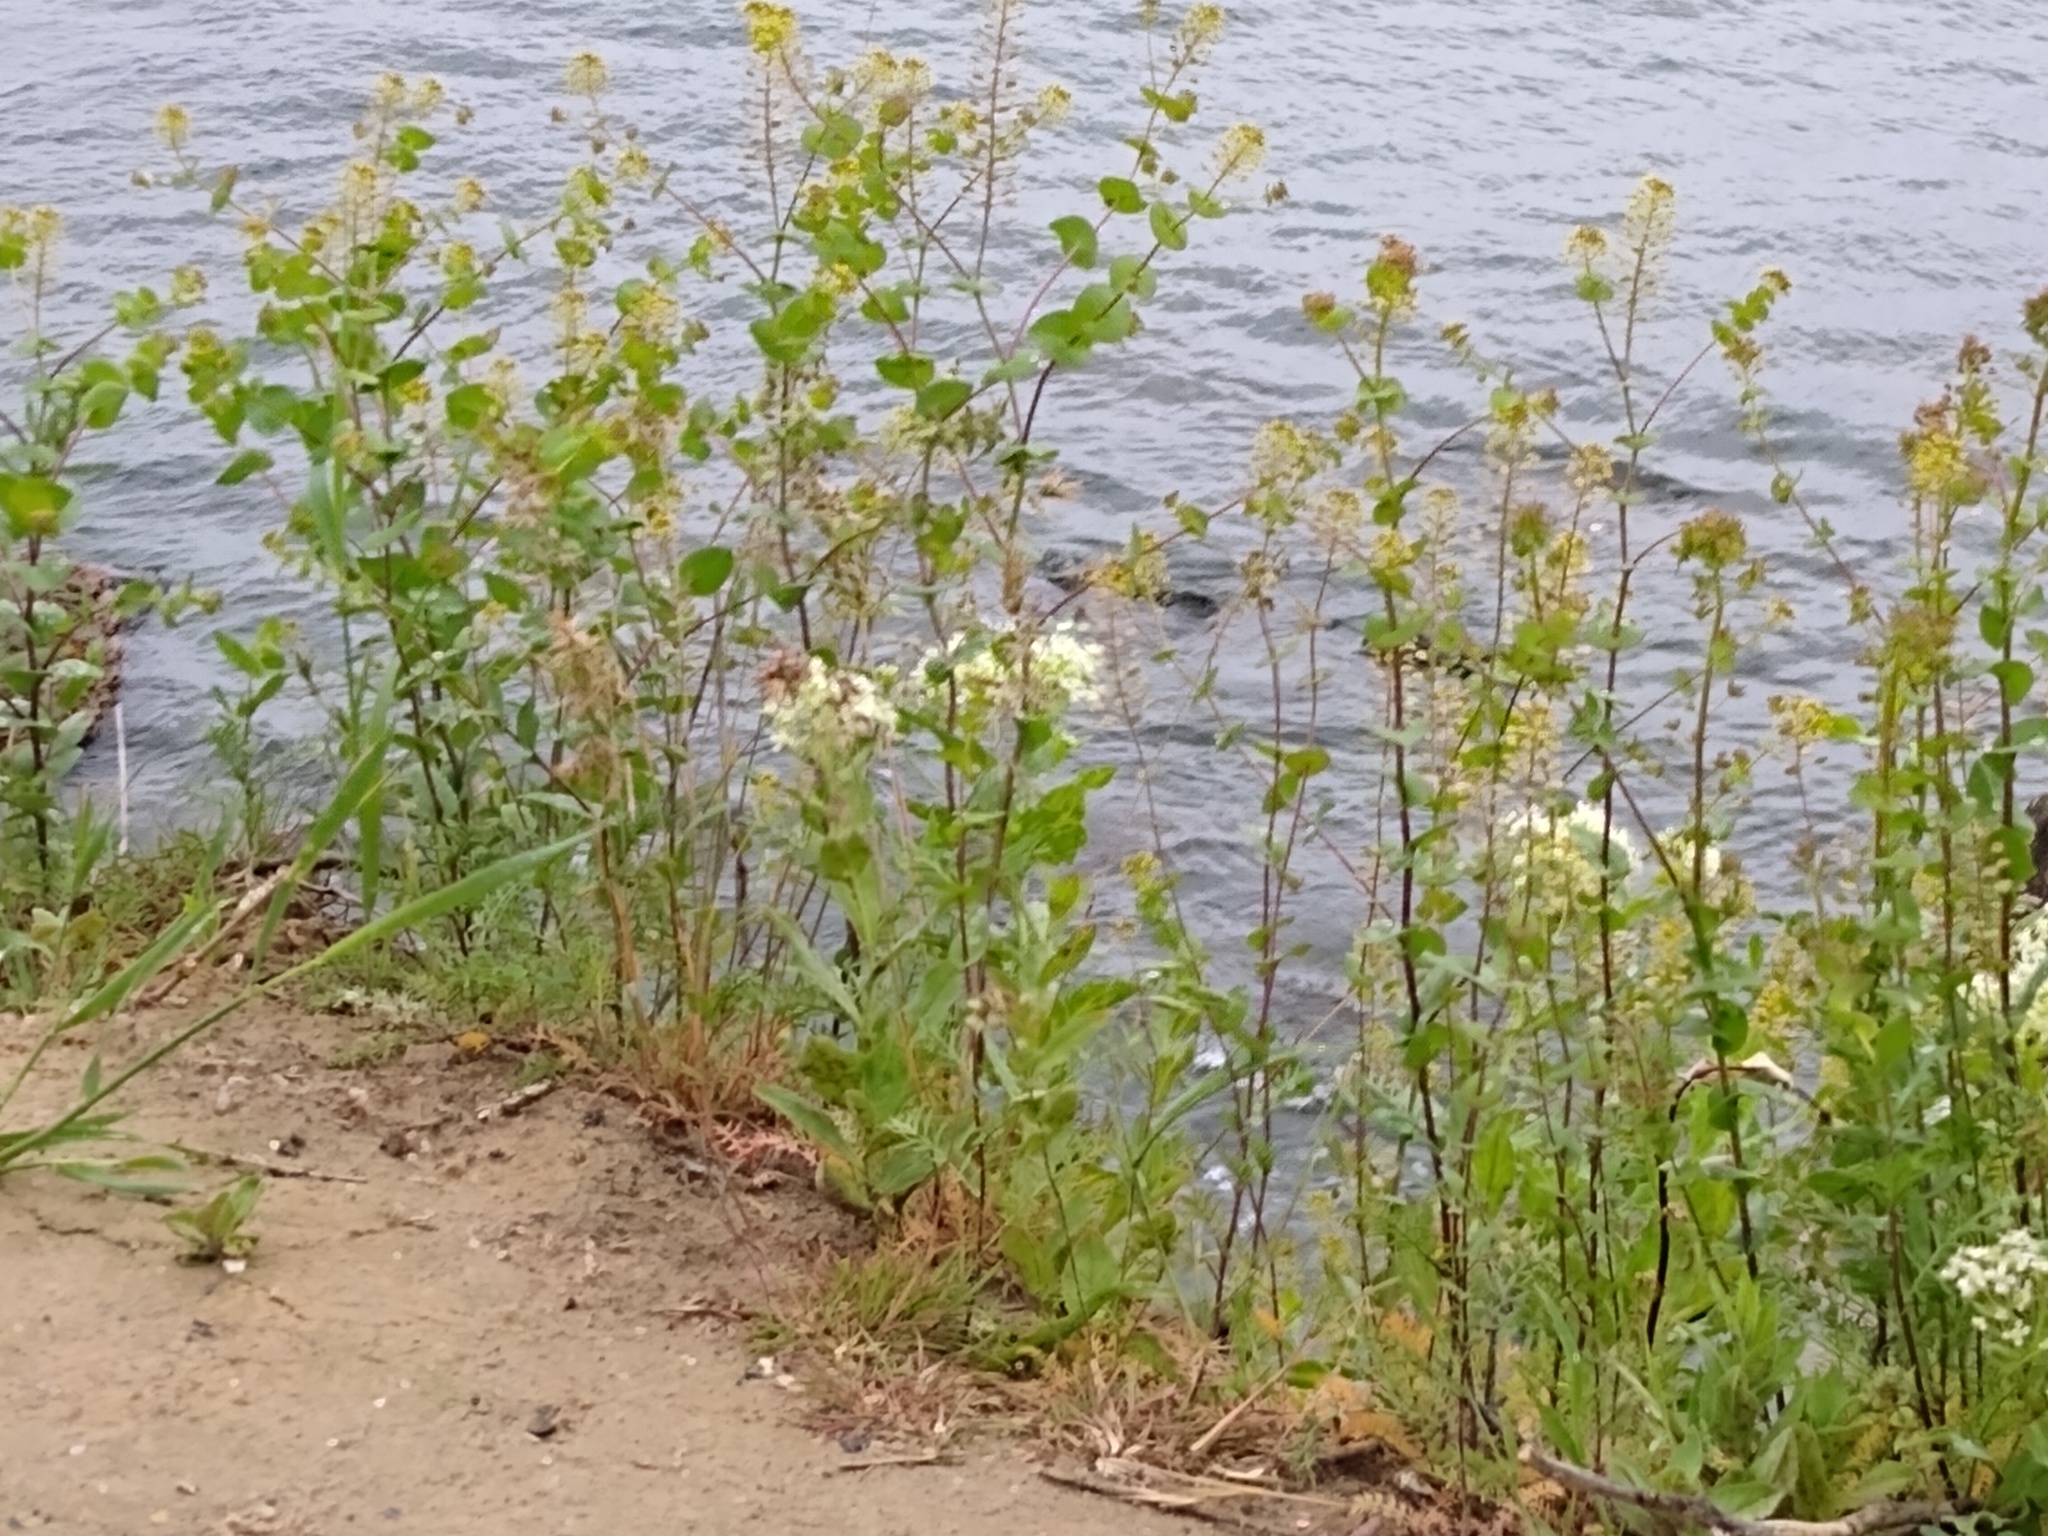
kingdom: Plantae
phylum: Tracheophyta
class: Magnoliopsida
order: Brassicales
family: Brassicaceae
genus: Lepidium
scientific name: Lepidium perfoliatum
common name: Perfoliate pepperwort
